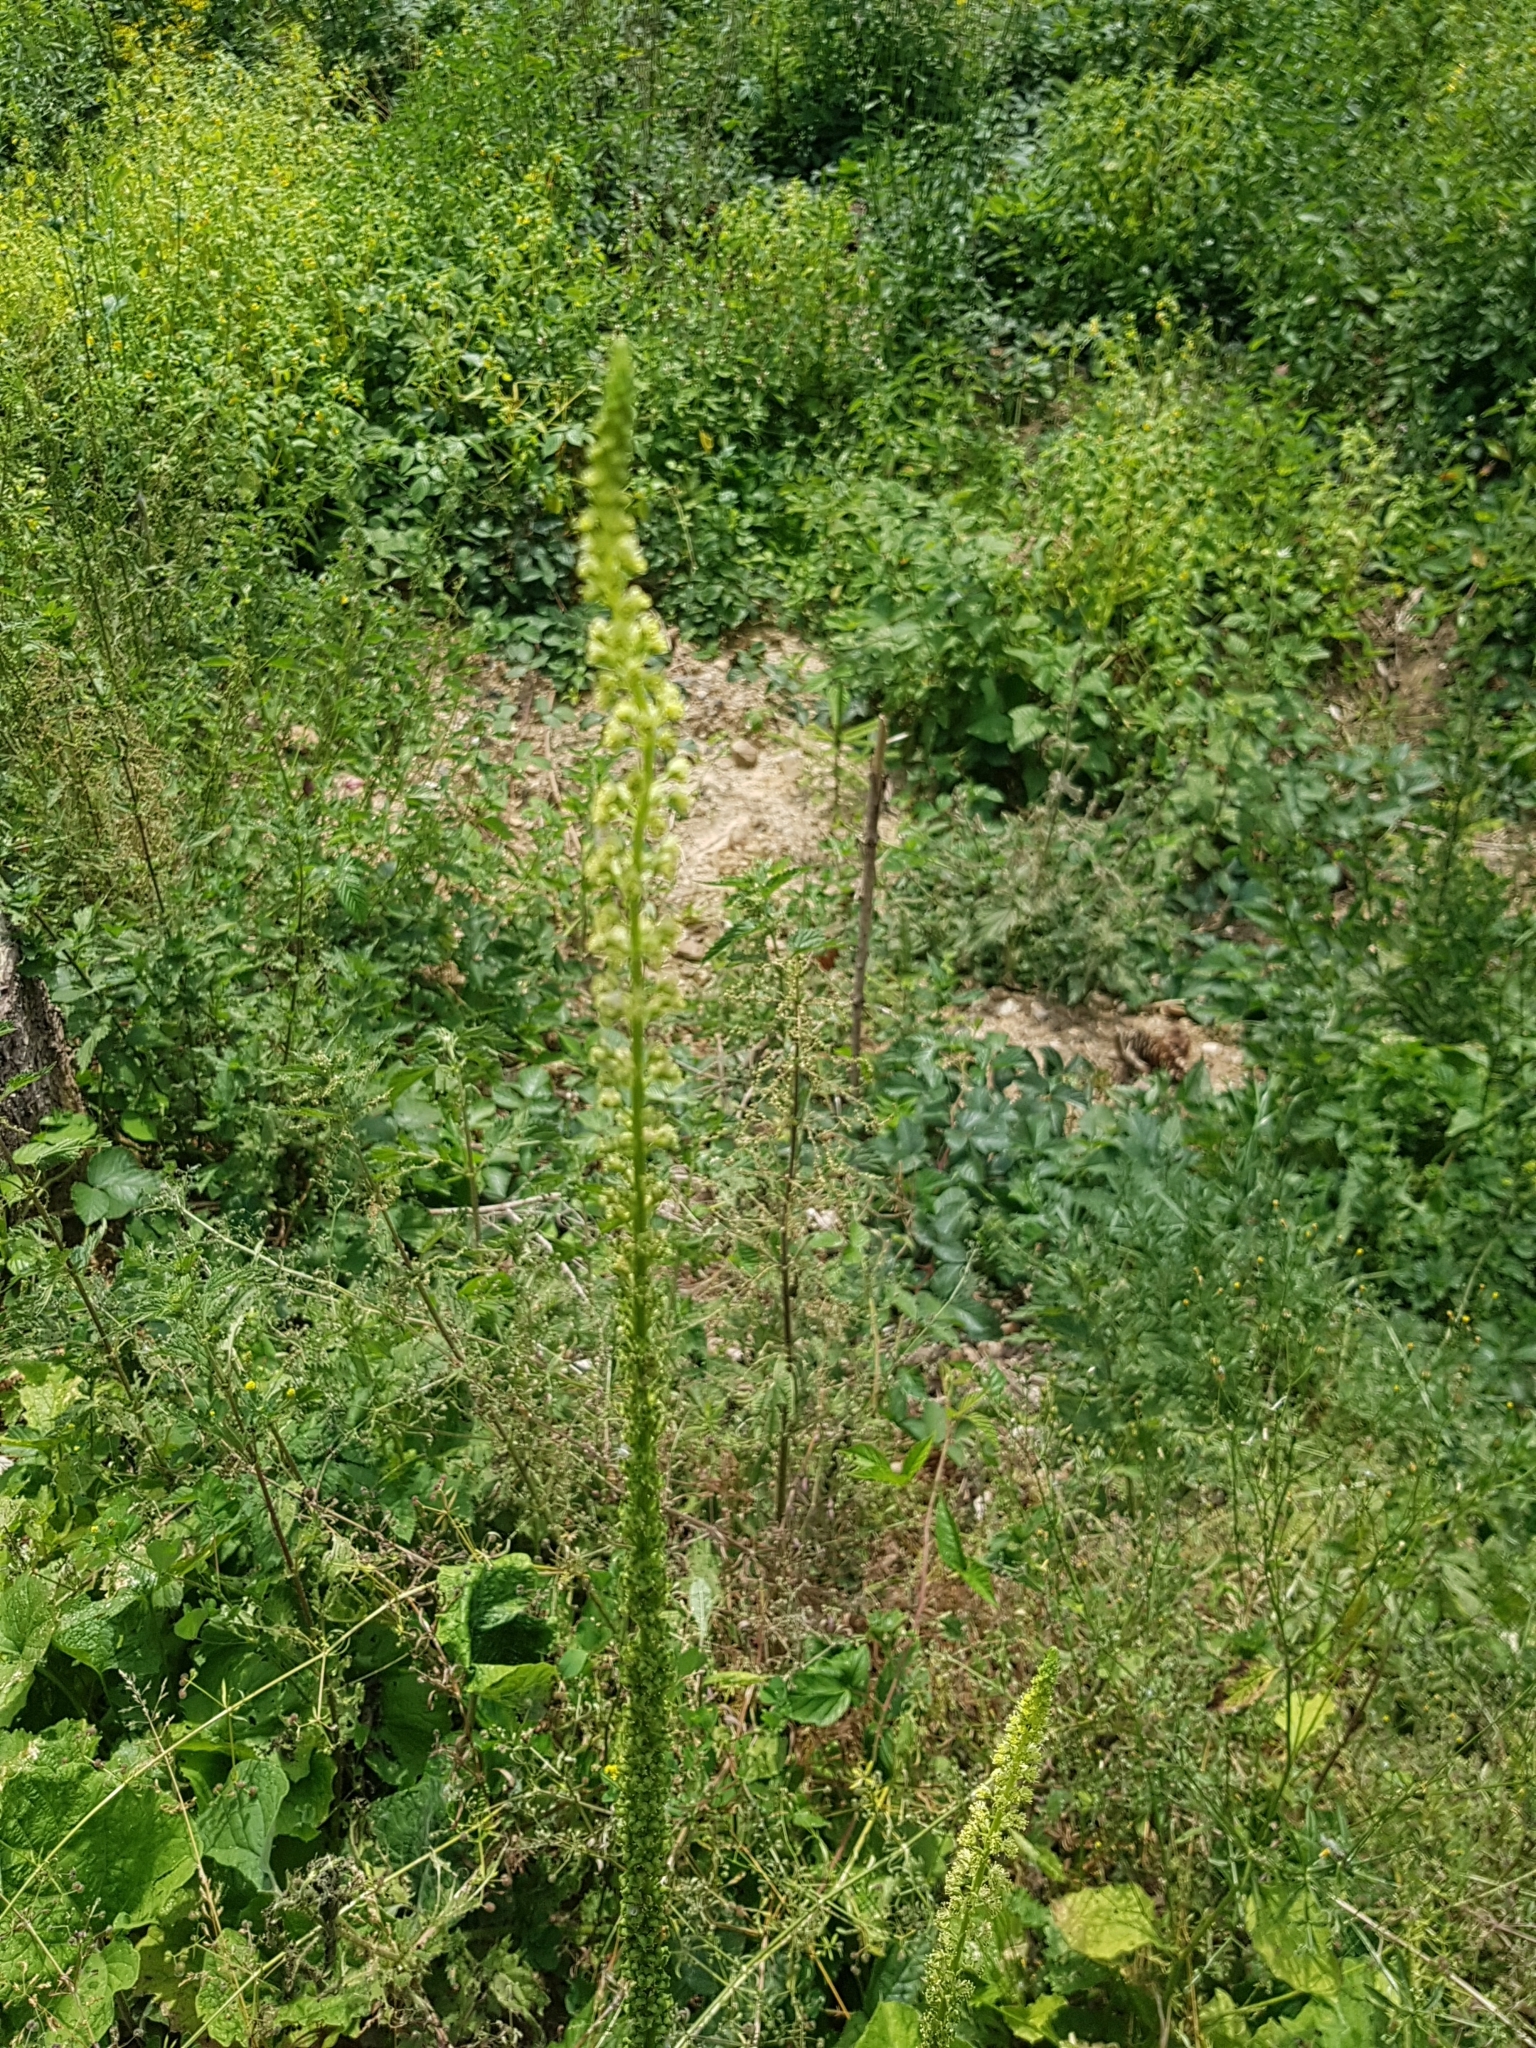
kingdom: Plantae
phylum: Tracheophyta
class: Magnoliopsida
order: Brassicales
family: Resedaceae
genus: Reseda
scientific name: Reseda luteola
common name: Weld
